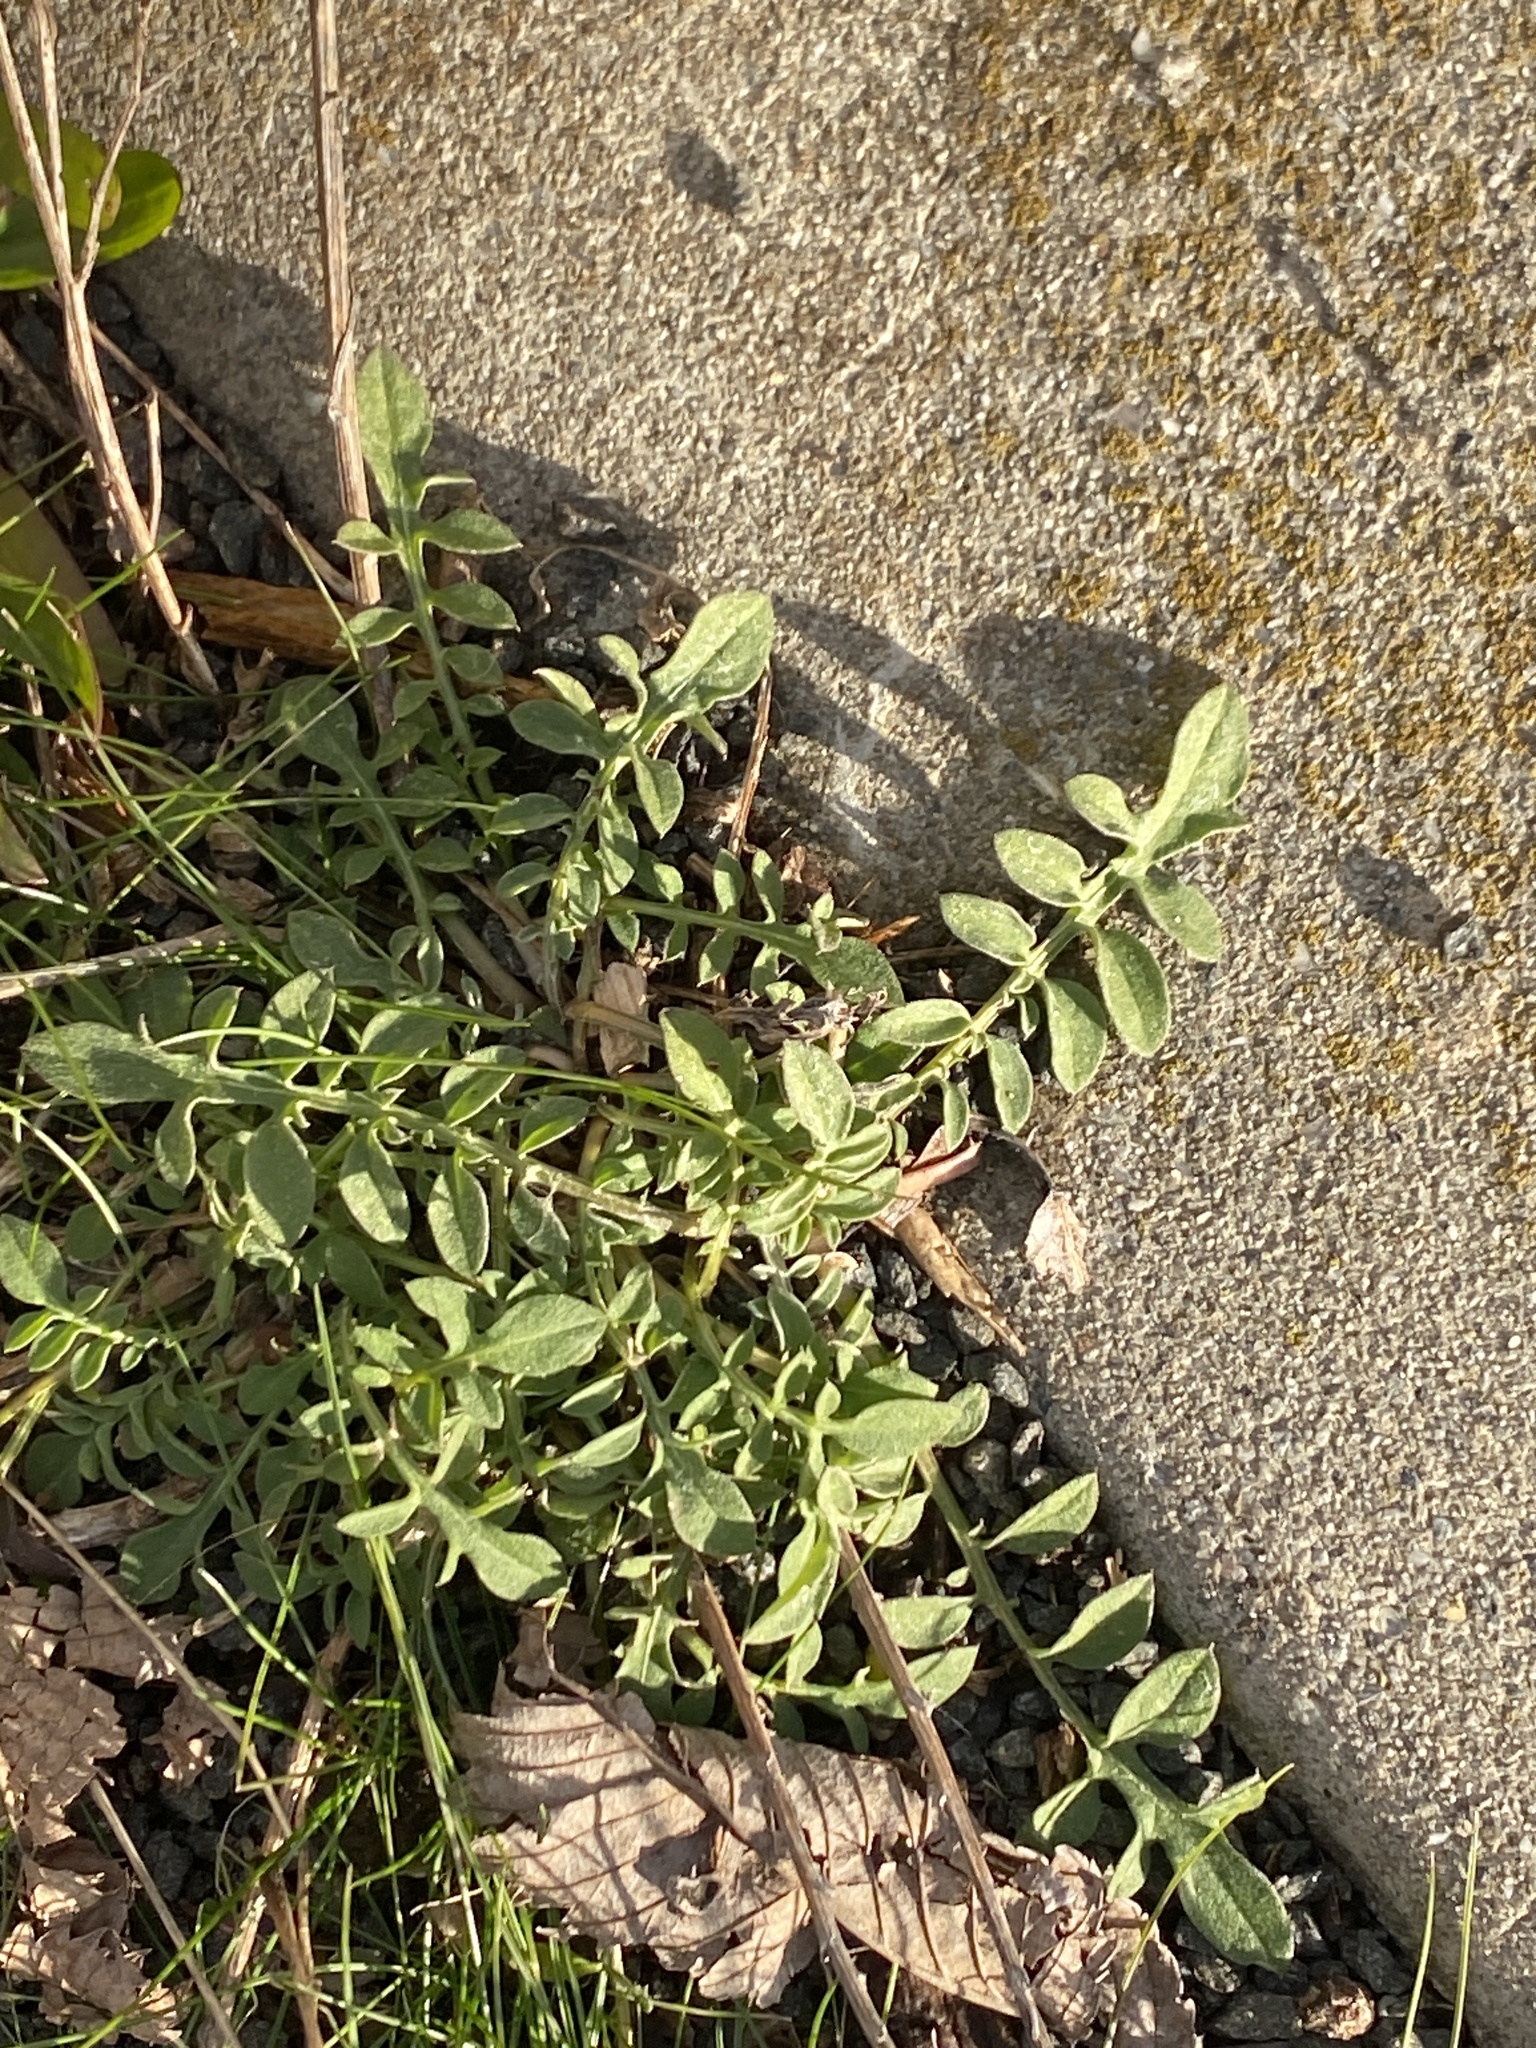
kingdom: Plantae
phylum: Tracheophyta
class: Magnoliopsida
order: Asterales
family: Asteraceae
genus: Centaurea
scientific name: Centaurea stoebe
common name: Spotted knapweed
